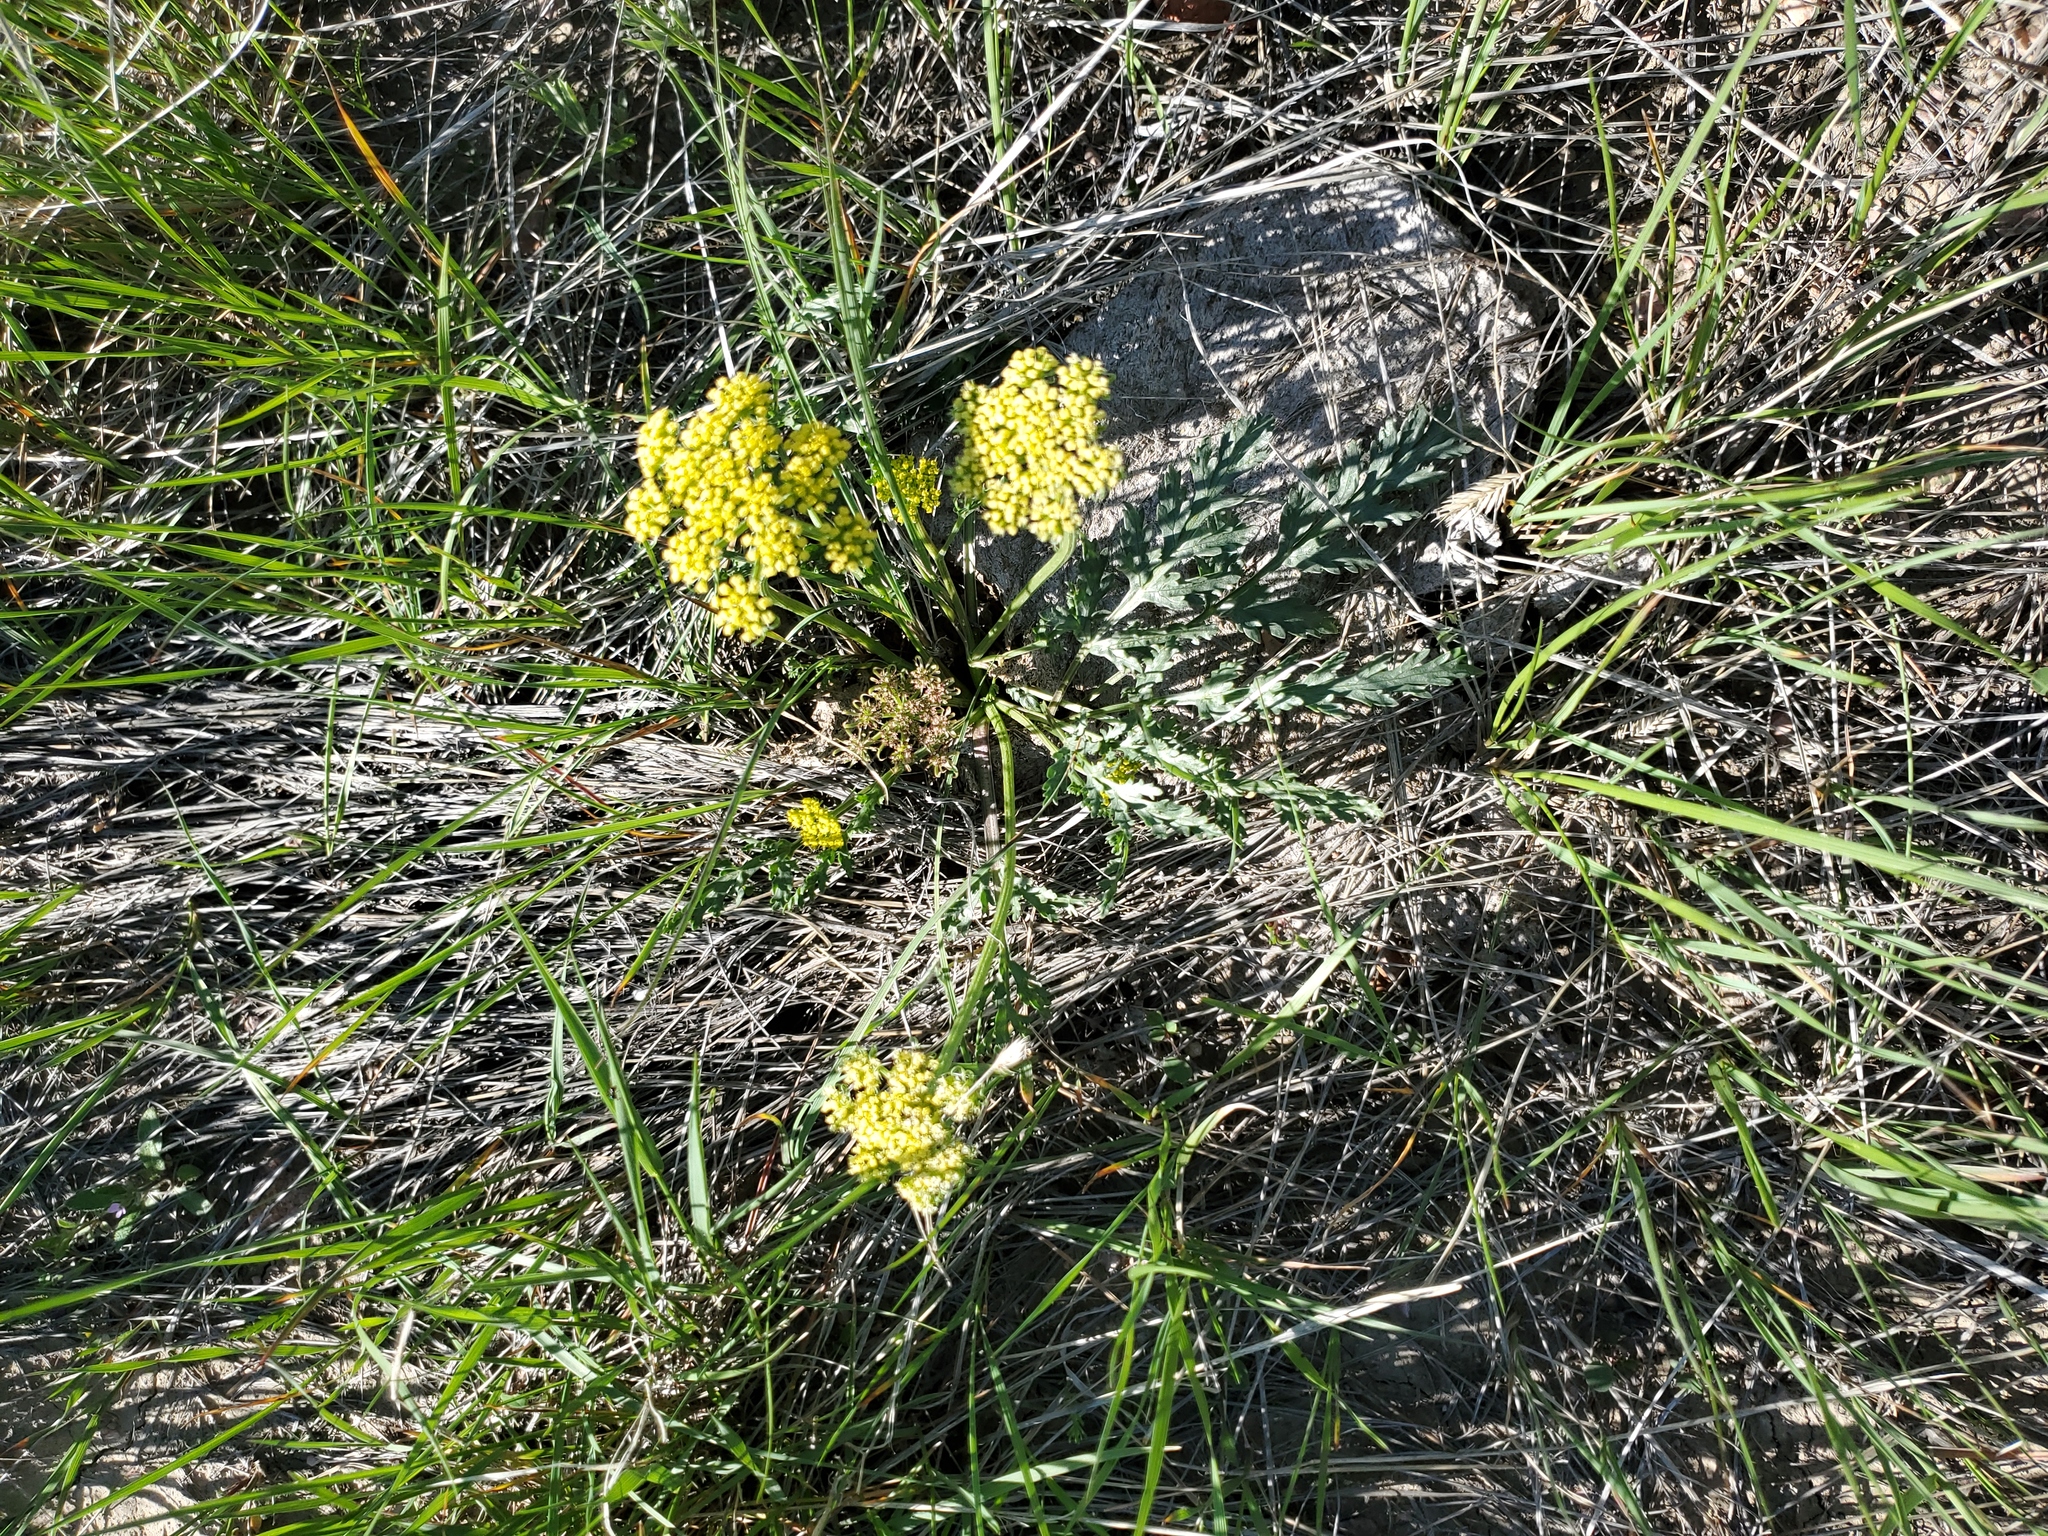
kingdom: Plantae
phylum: Tracheophyta
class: Magnoliopsida
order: Apiales
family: Apiaceae
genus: Musineon
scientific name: Musineon divaricatum
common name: Plains musineon
